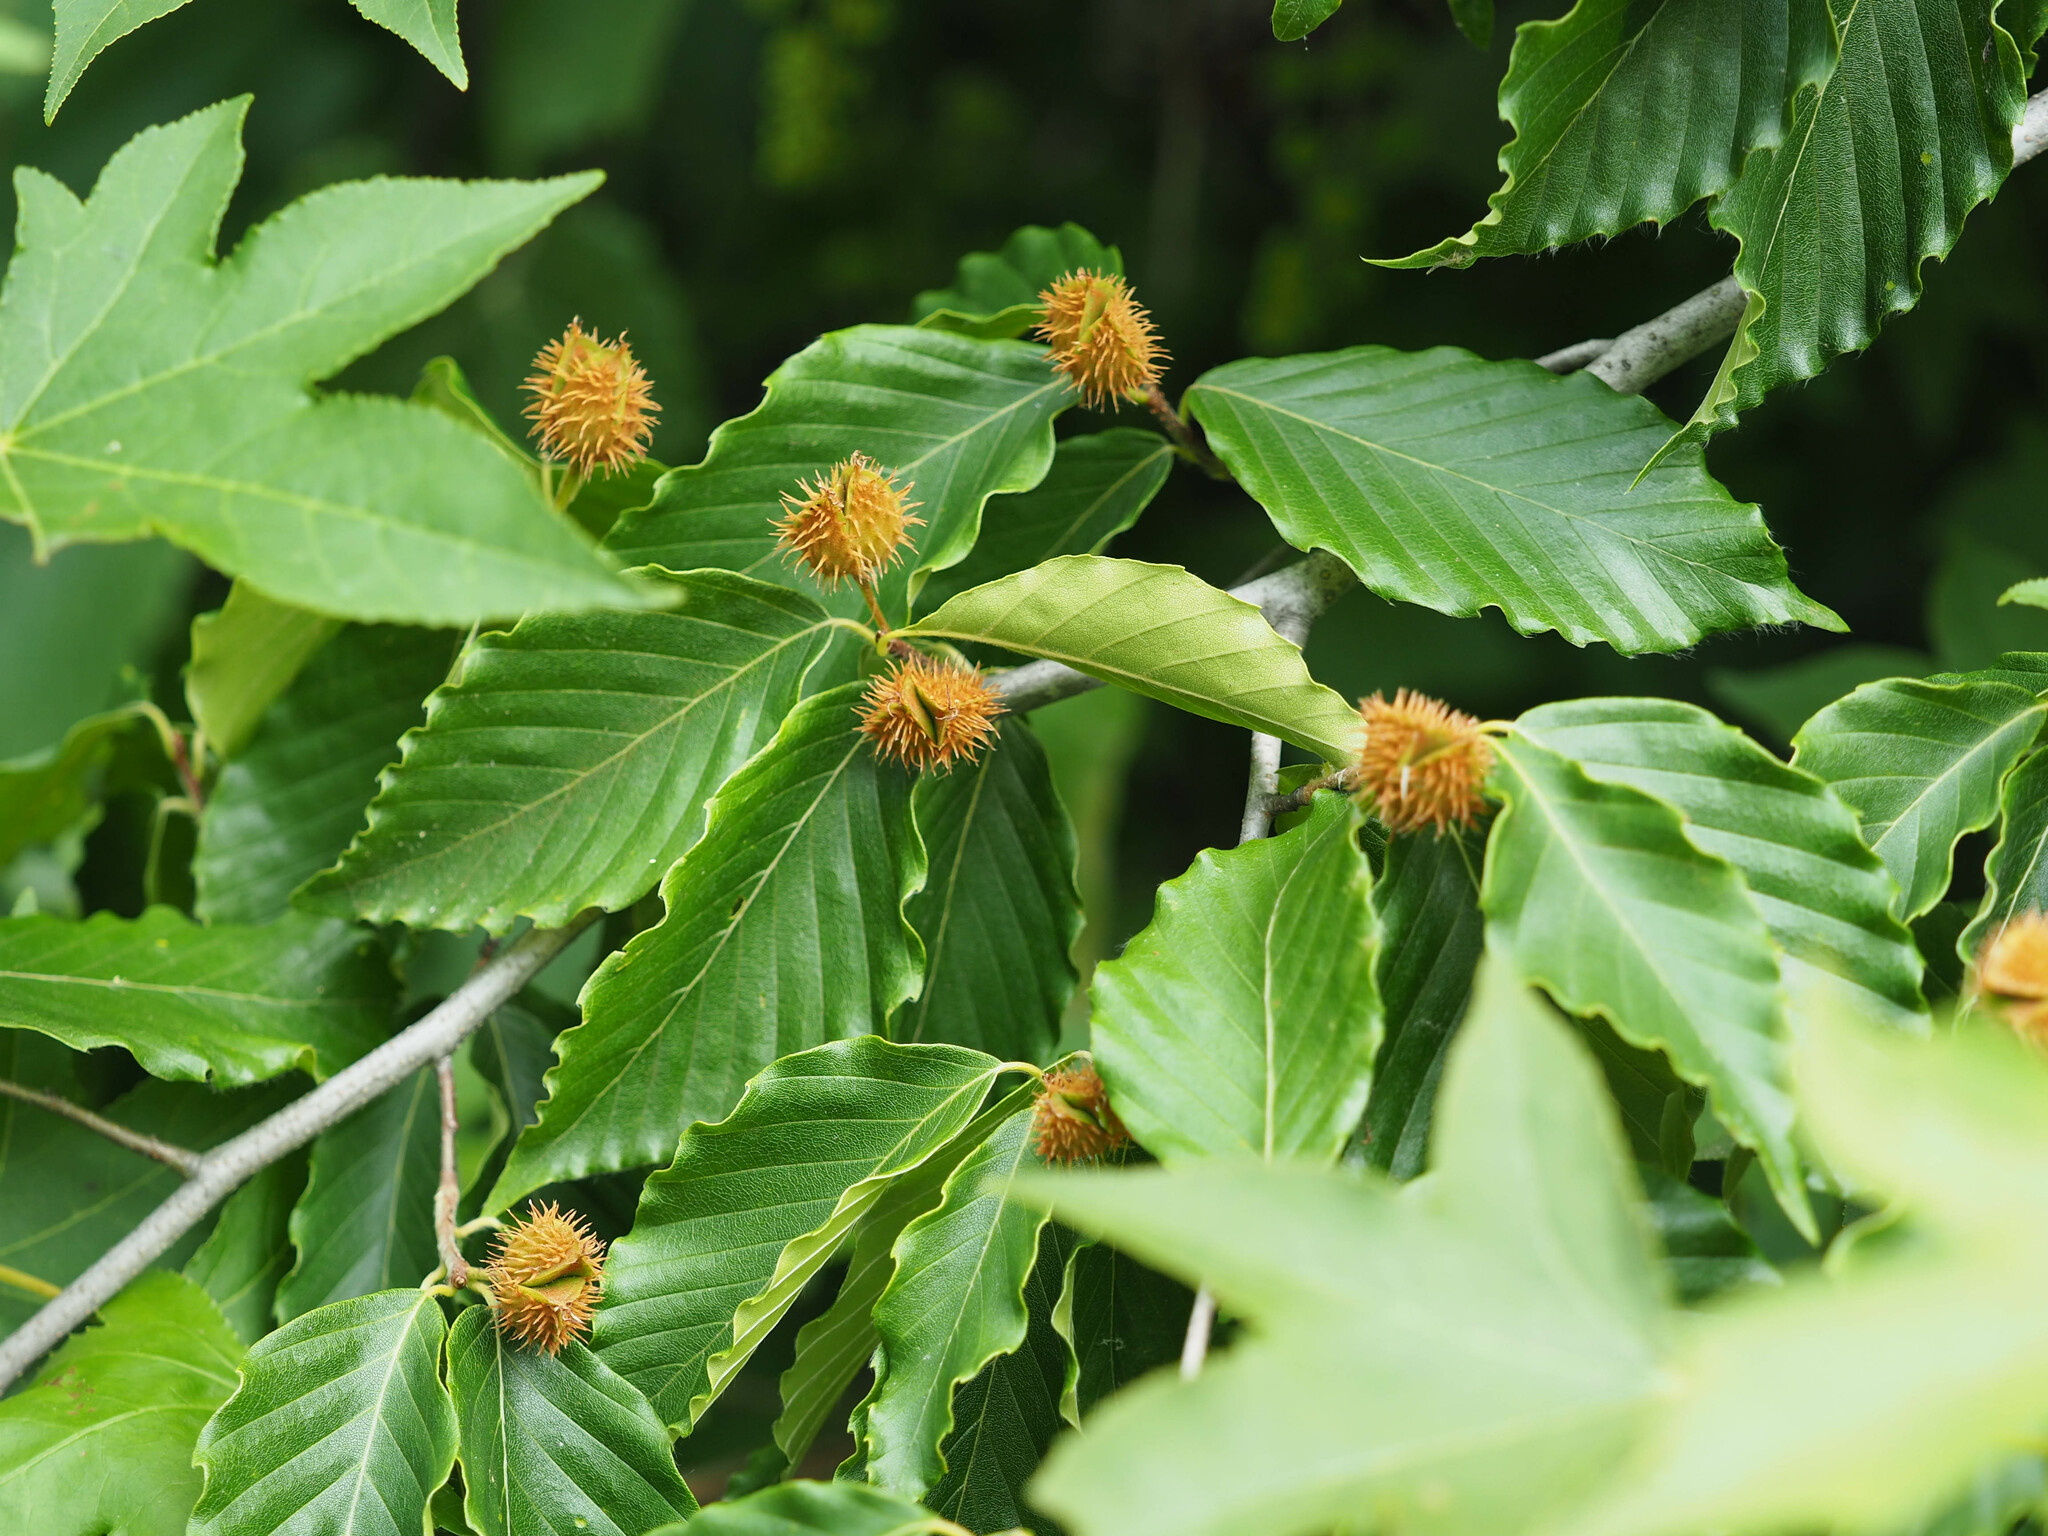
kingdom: Plantae
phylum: Tracheophyta
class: Magnoliopsida
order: Fagales
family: Fagaceae
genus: Fagus
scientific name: Fagus sylvatica
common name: Beech
